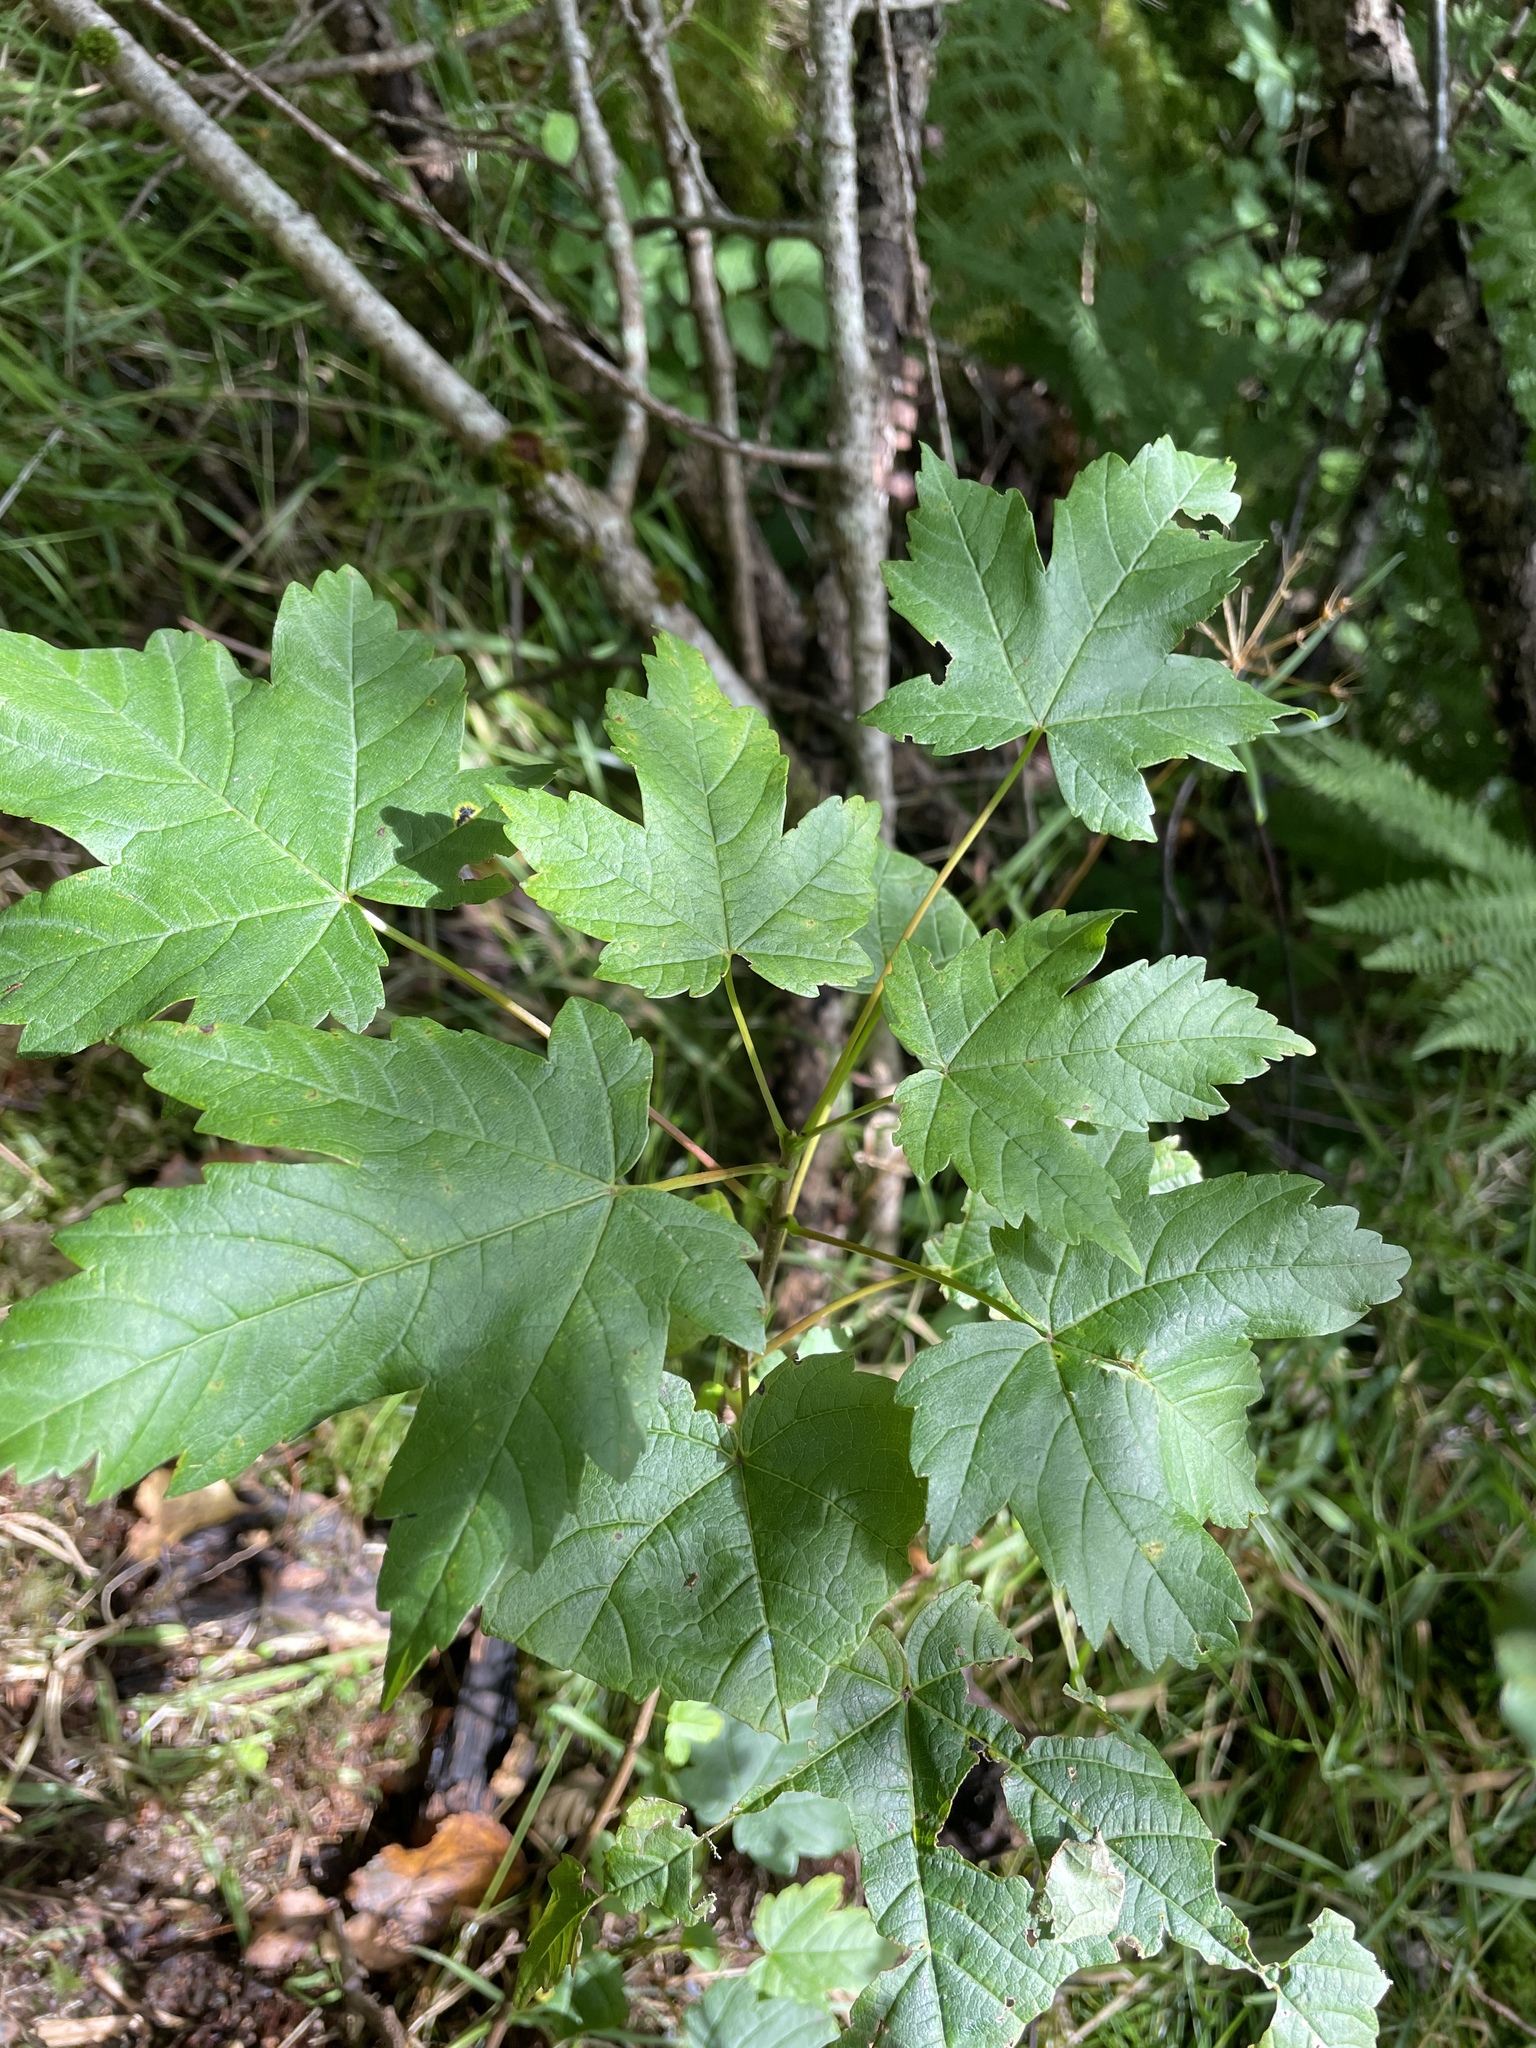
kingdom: Plantae
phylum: Tracheophyta
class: Magnoliopsida
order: Sapindales
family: Sapindaceae
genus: Acer
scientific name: Acer pseudoplatanus
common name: Sycamore
